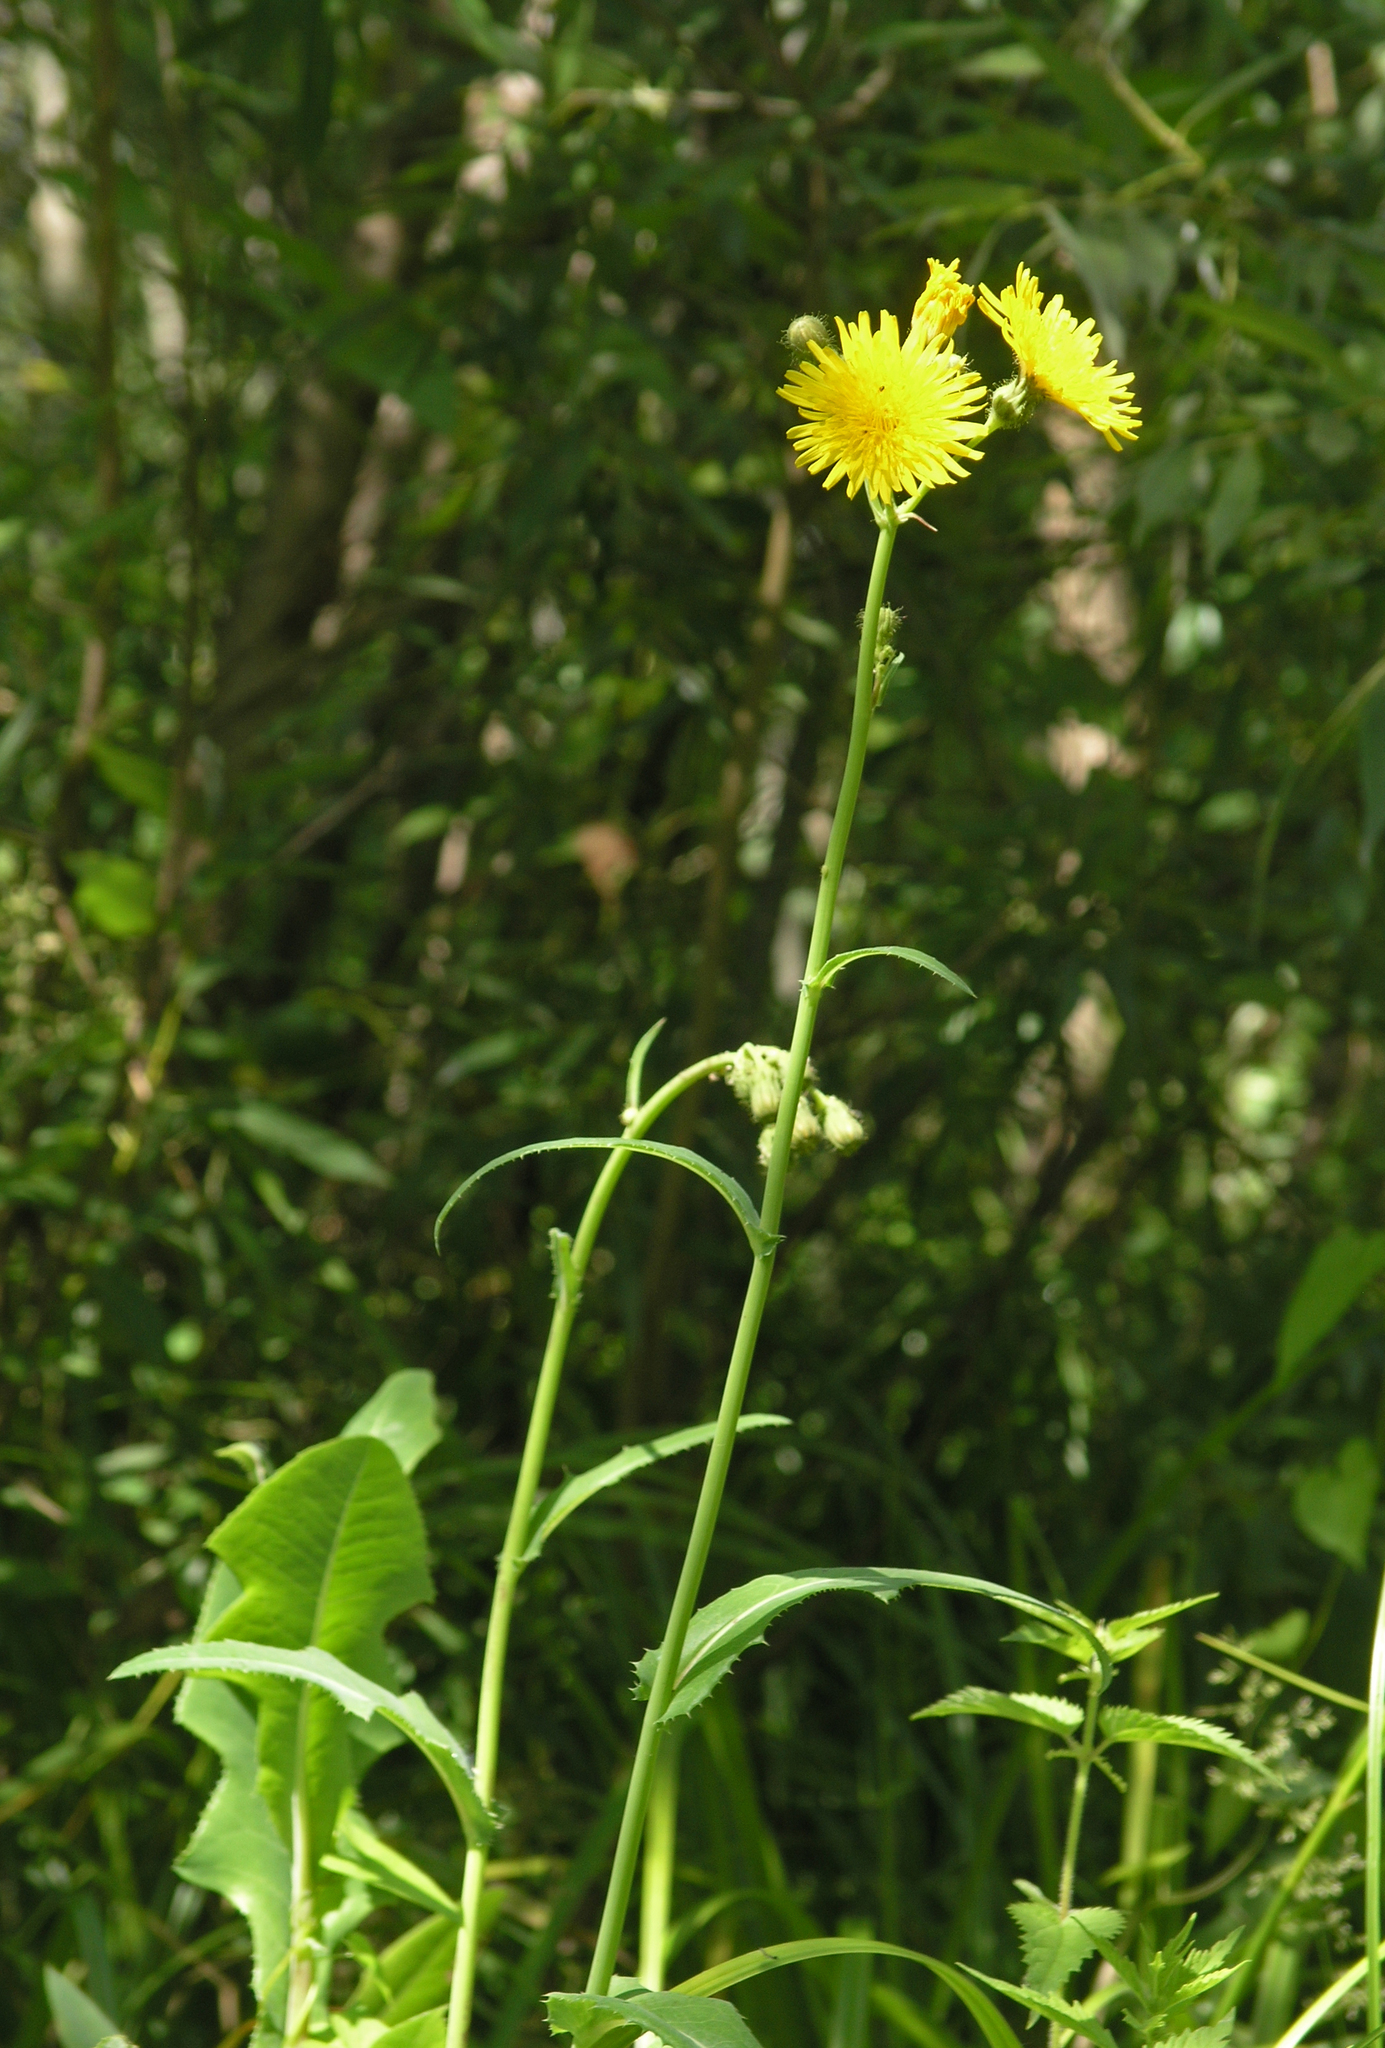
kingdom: Plantae
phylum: Tracheophyta
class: Magnoliopsida
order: Asterales
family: Asteraceae
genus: Sonchus
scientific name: Sonchus arvensis
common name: Perennial sow-thistle
